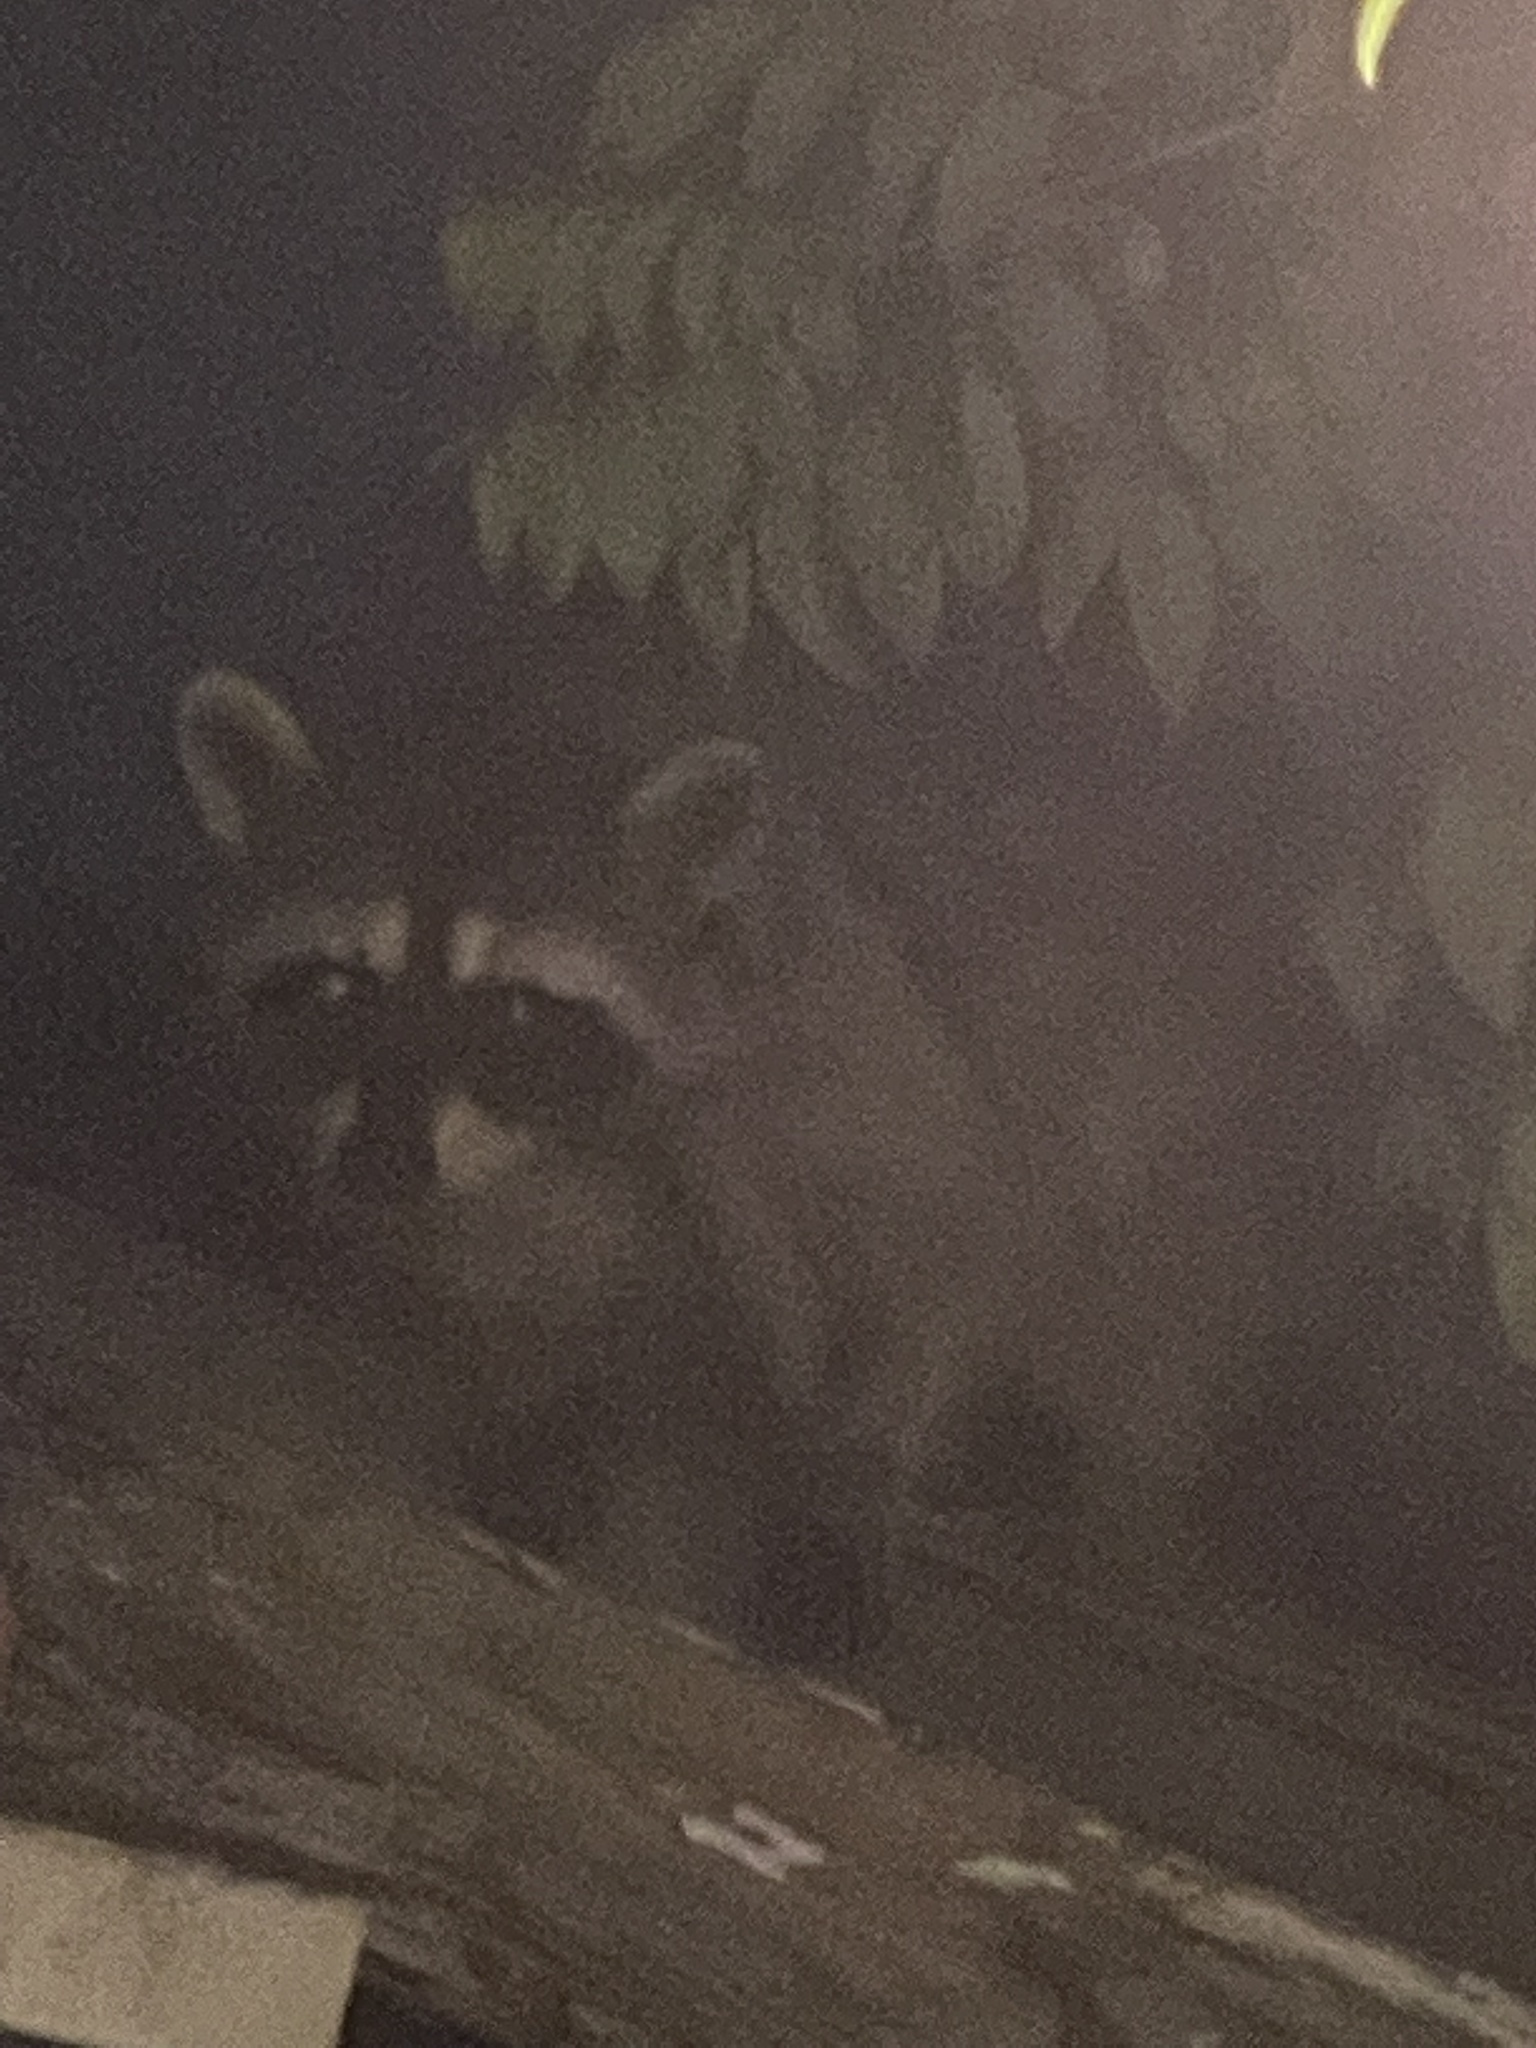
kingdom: Animalia
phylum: Chordata
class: Mammalia
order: Carnivora
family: Procyonidae
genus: Procyon
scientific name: Procyon lotor
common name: Raccoon
